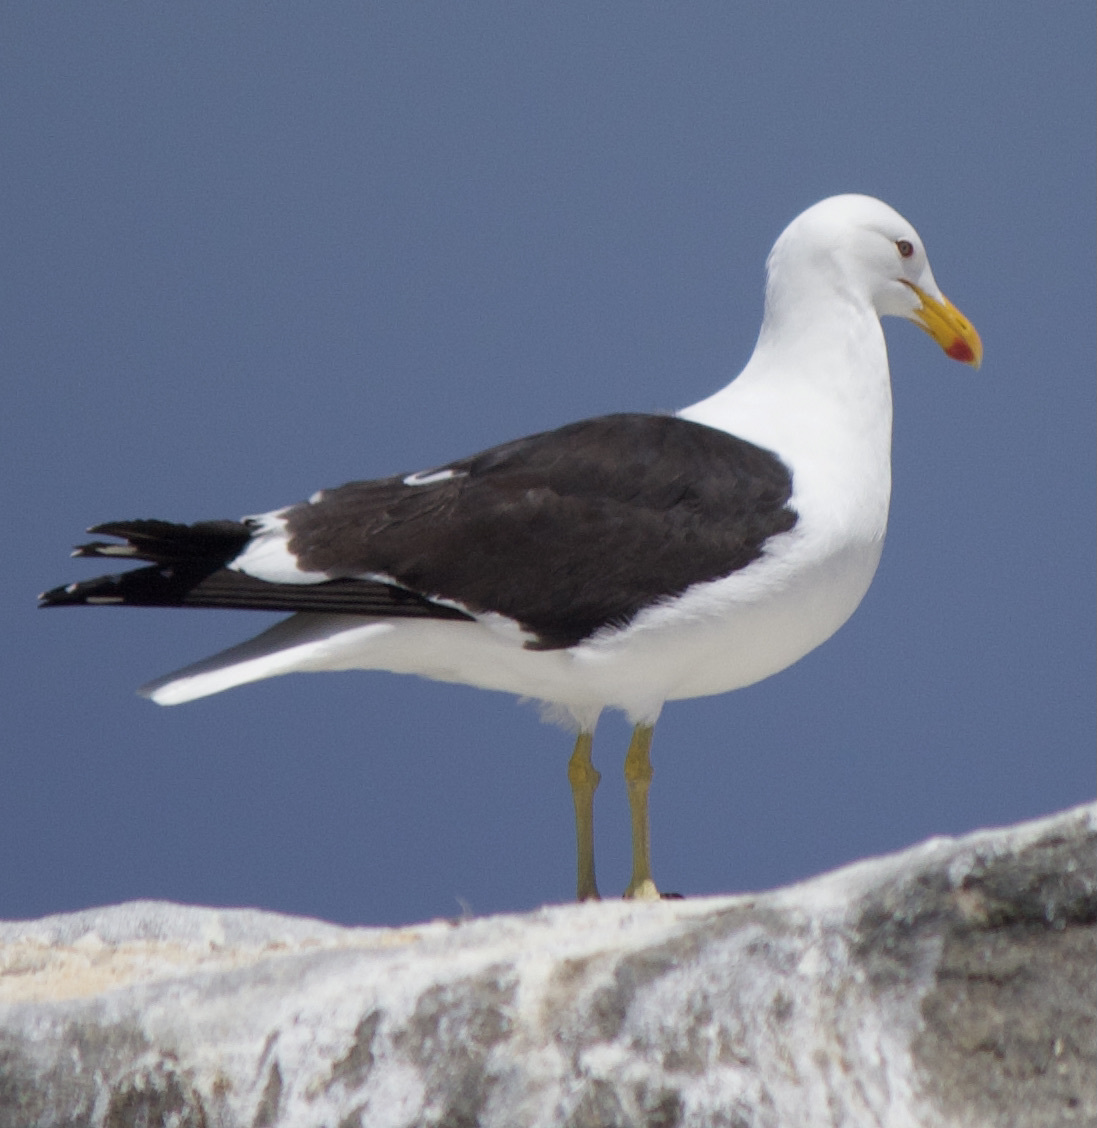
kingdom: Animalia
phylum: Chordata
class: Aves
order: Charadriiformes
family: Laridae
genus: Larus
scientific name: Larus dominicanus
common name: Kelp gull
